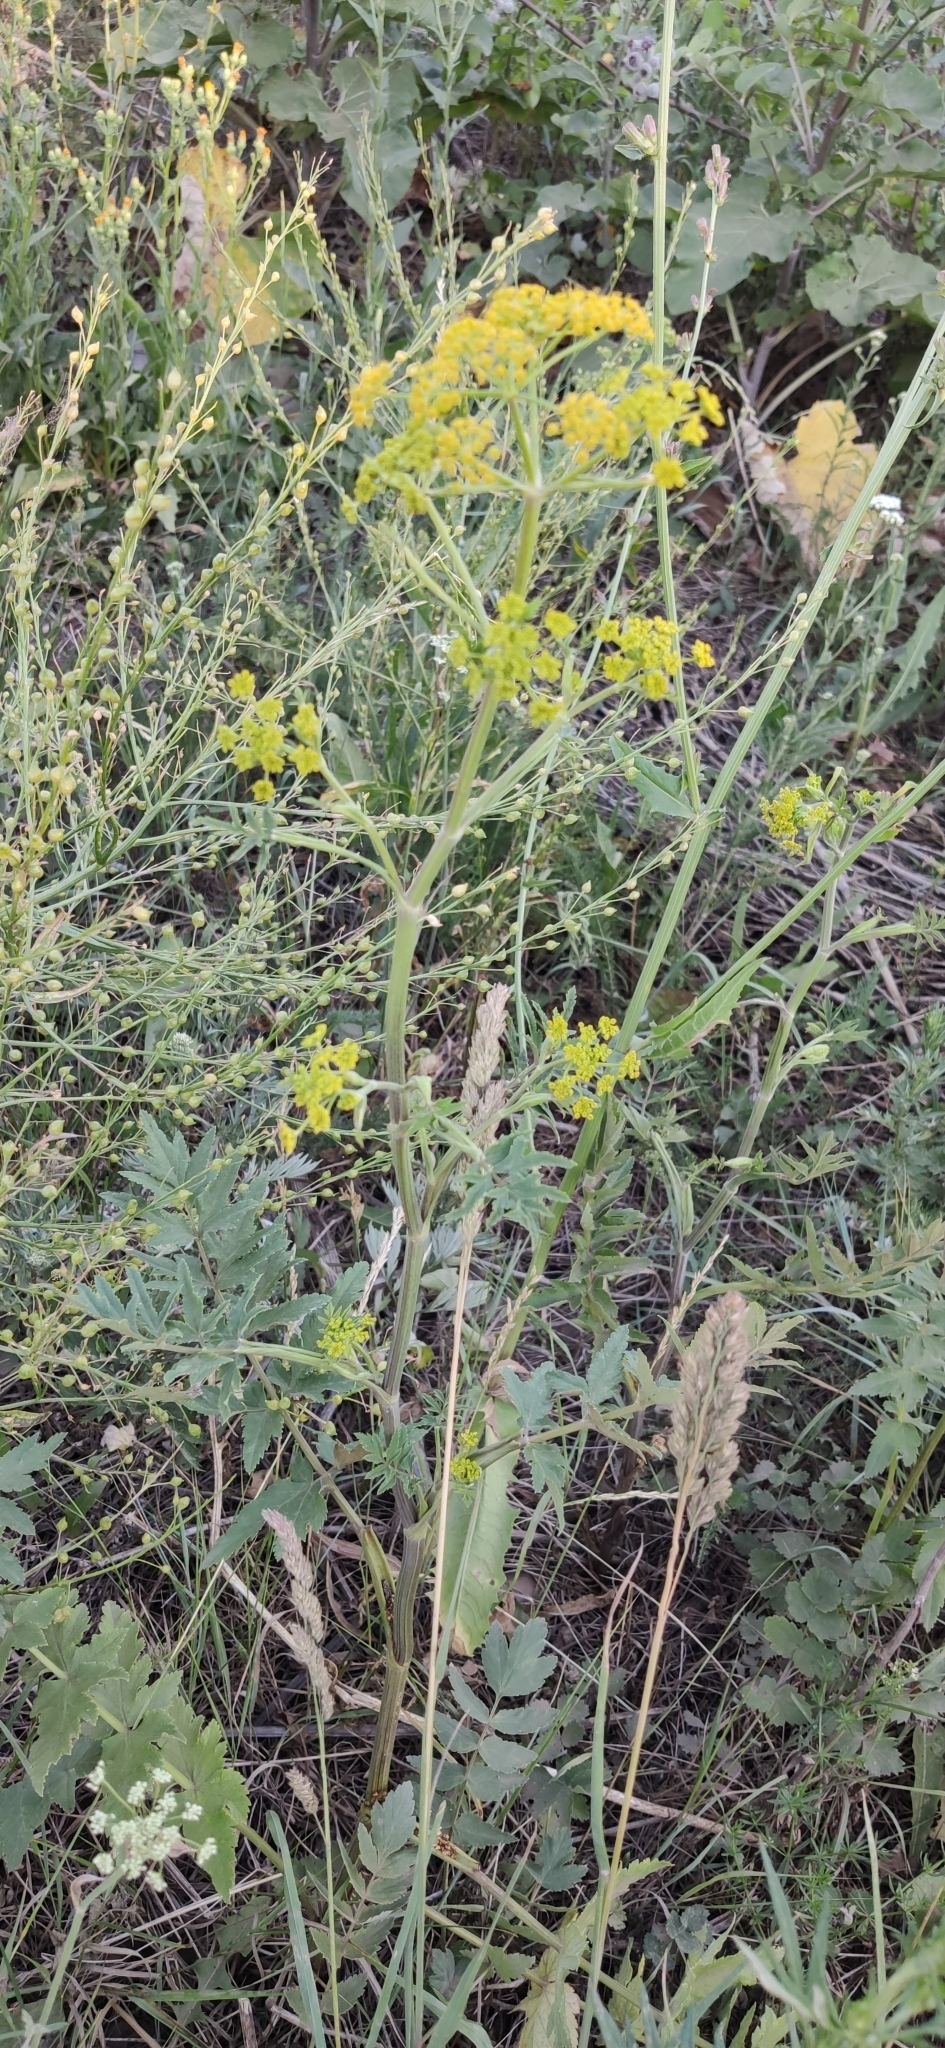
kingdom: Plantae
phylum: Tracheophyta
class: Magnoliopsida
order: Apiales
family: Apiaceae
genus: Pastinaca
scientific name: Pastinaca sativa
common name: Wild parsnip
